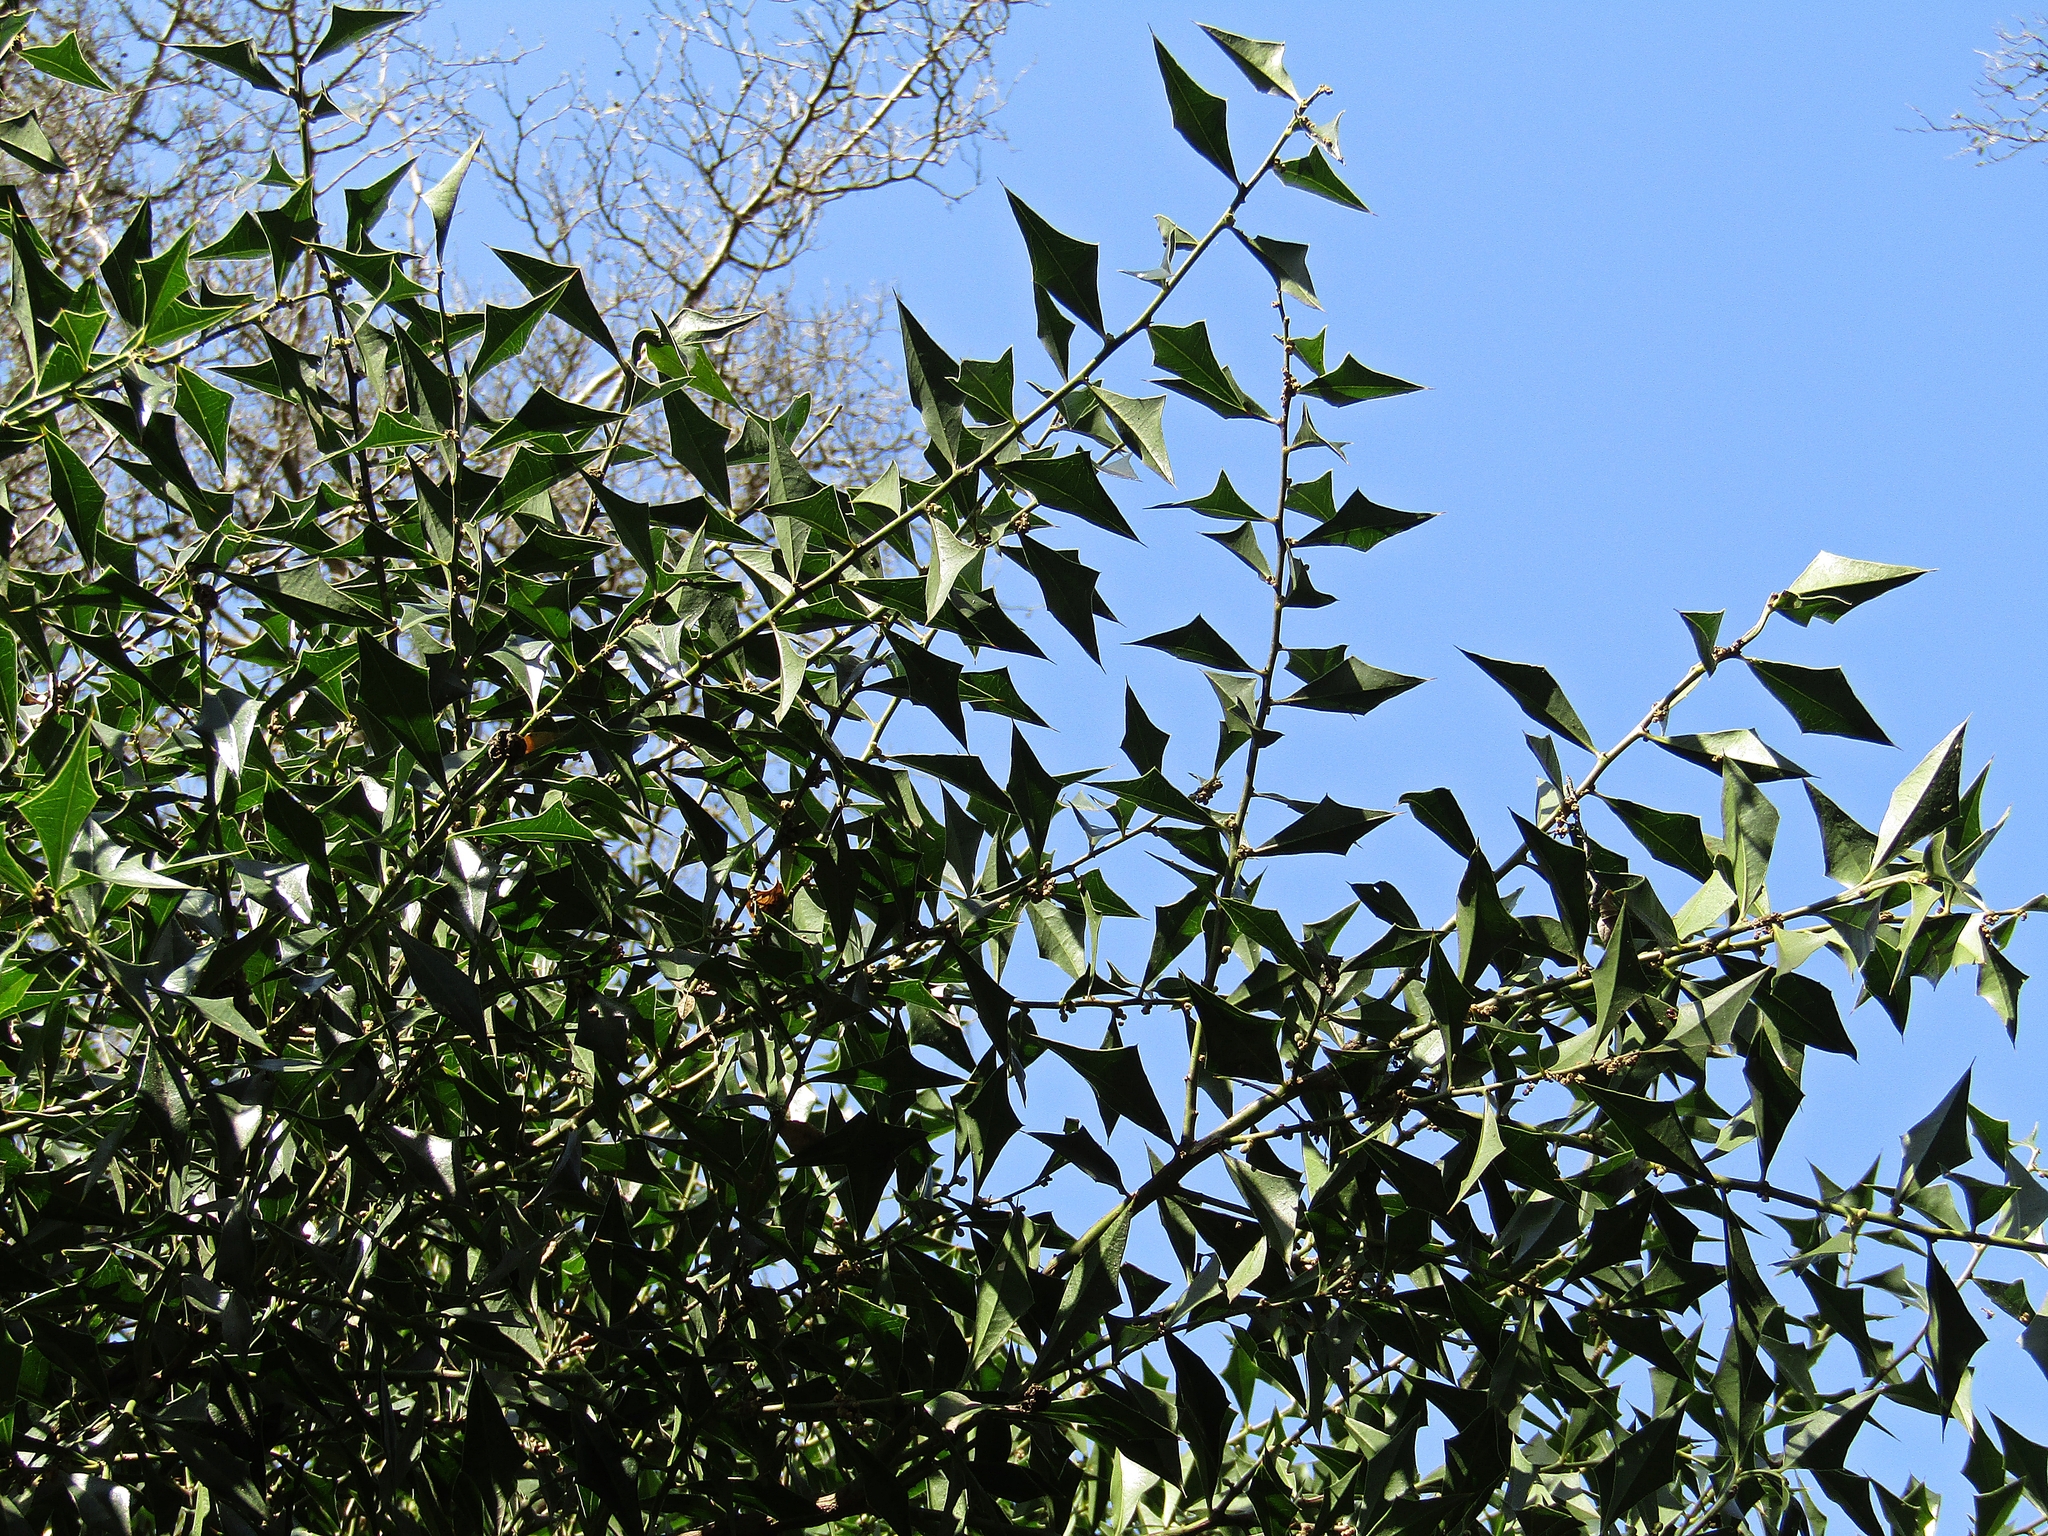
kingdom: Plantae
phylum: Tracheophyta
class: Magnoliopsida
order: Santalales
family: Cervantesiaceae
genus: Jodina
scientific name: Jodina rhombifolia
